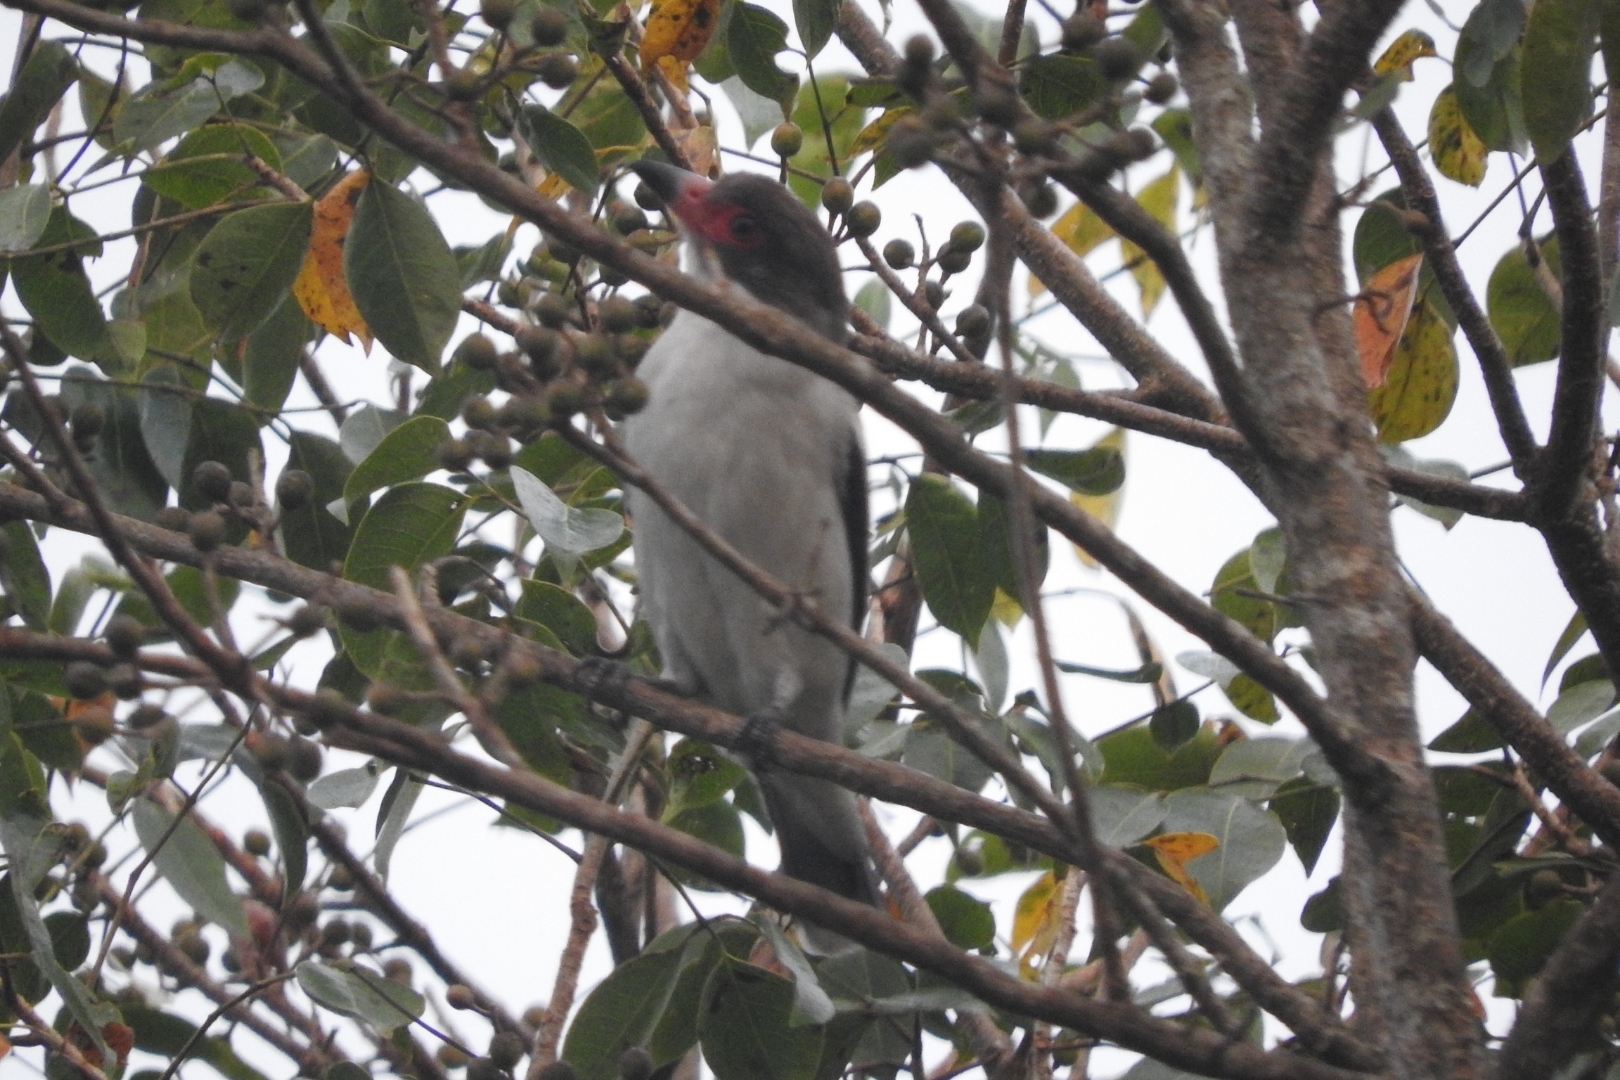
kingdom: Animalia
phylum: Chordata
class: Aves
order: Passeriformes
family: Cotingidae
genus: Tityra
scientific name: Tityra semifasciata
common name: Masked tityra
